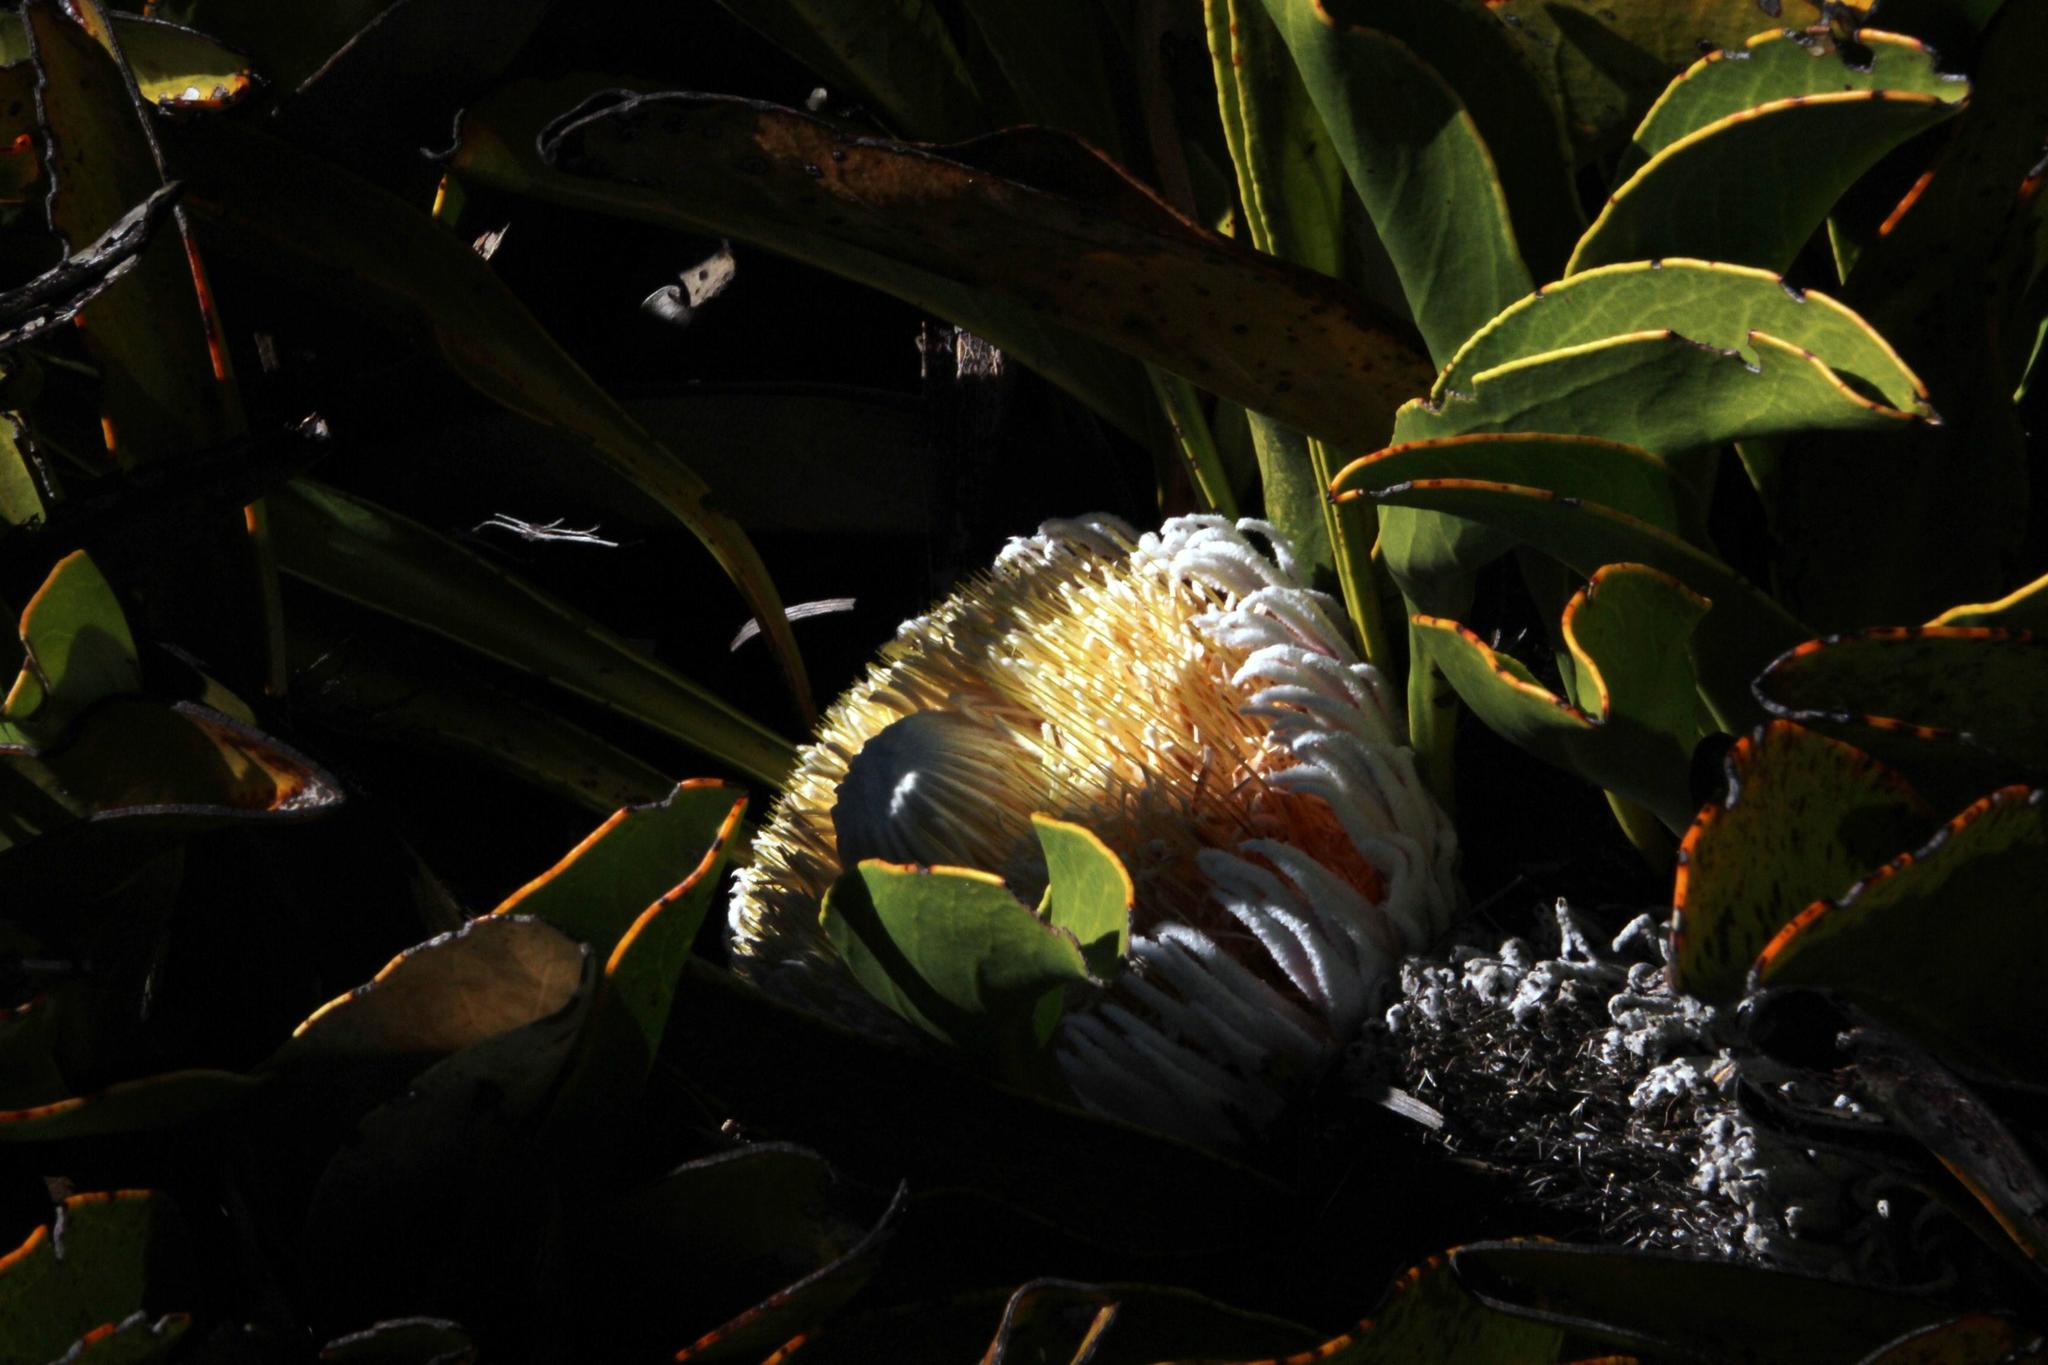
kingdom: Plantae
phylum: Tracheophyta
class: Magnoliopsida
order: Proteales
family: Proteaceae
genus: Protea
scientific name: Protea cryophila
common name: Snow protea
